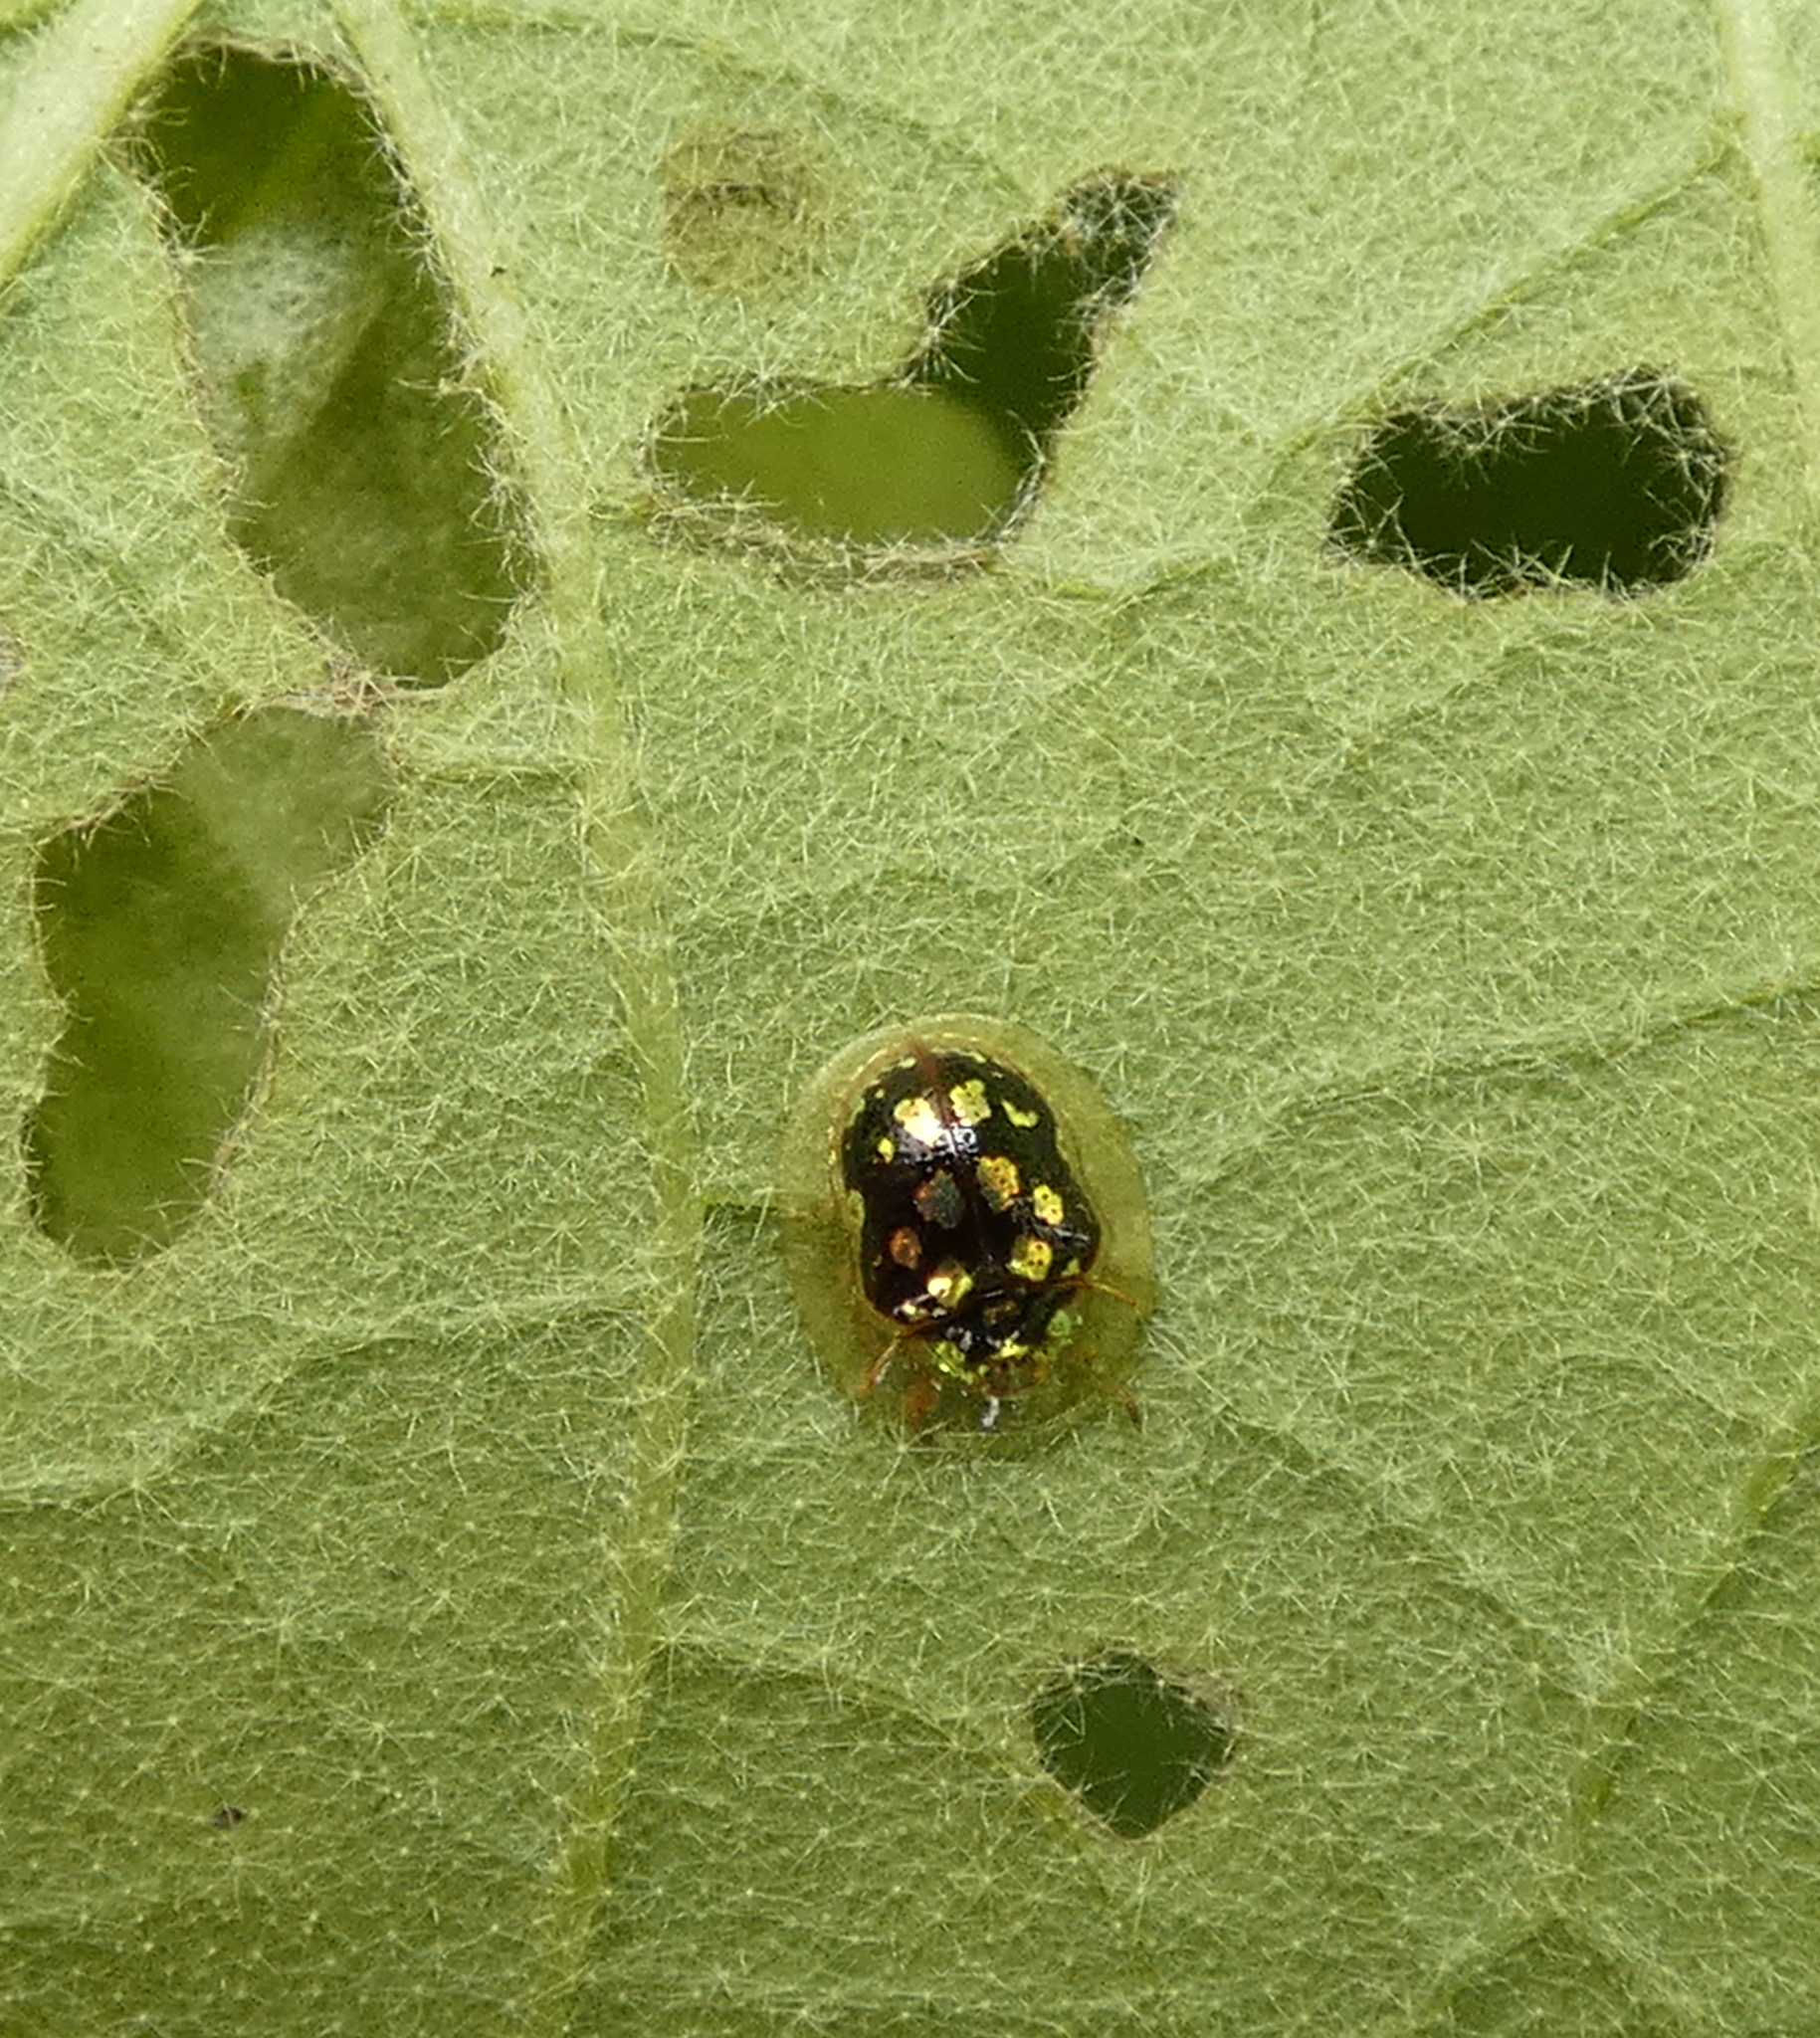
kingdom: Animalia
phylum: Arthropoda
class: Insecta
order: Coleoptera
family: Chrysomelidae
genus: Plagiometriona
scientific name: Plagiometriona microcera
